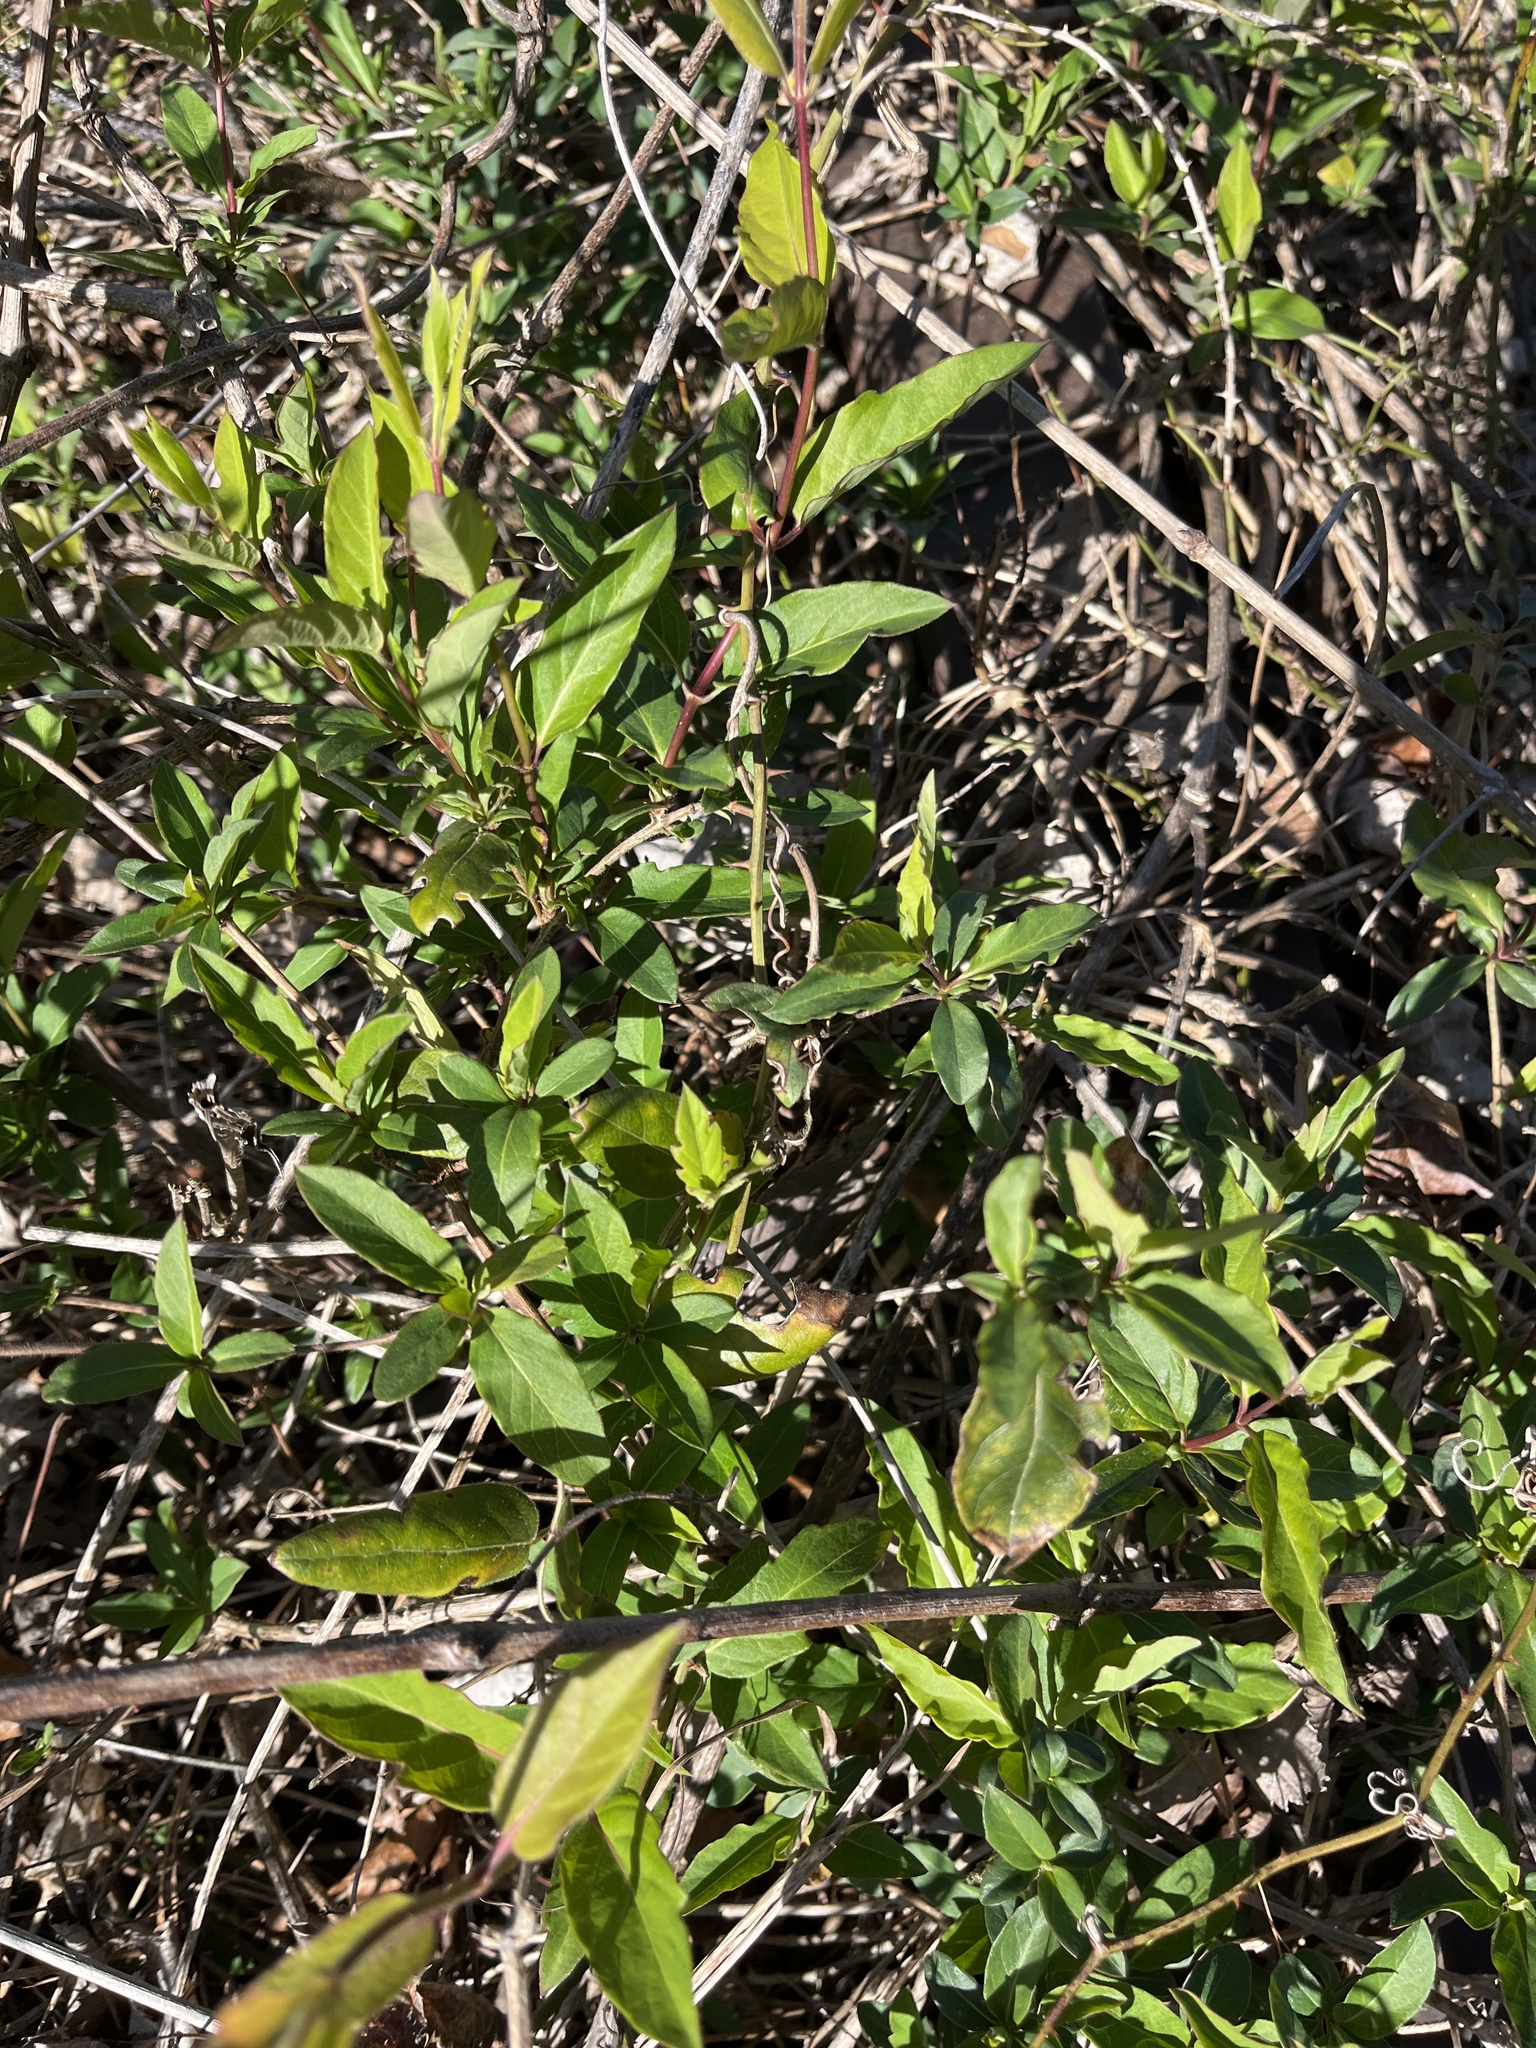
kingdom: Plantae
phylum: Tracheophyta
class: Magnoliopsida
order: Dipsacales
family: Caprifoliaceae
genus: Lonicera
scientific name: Lonicera japonica
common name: Japanese honeysuckle
